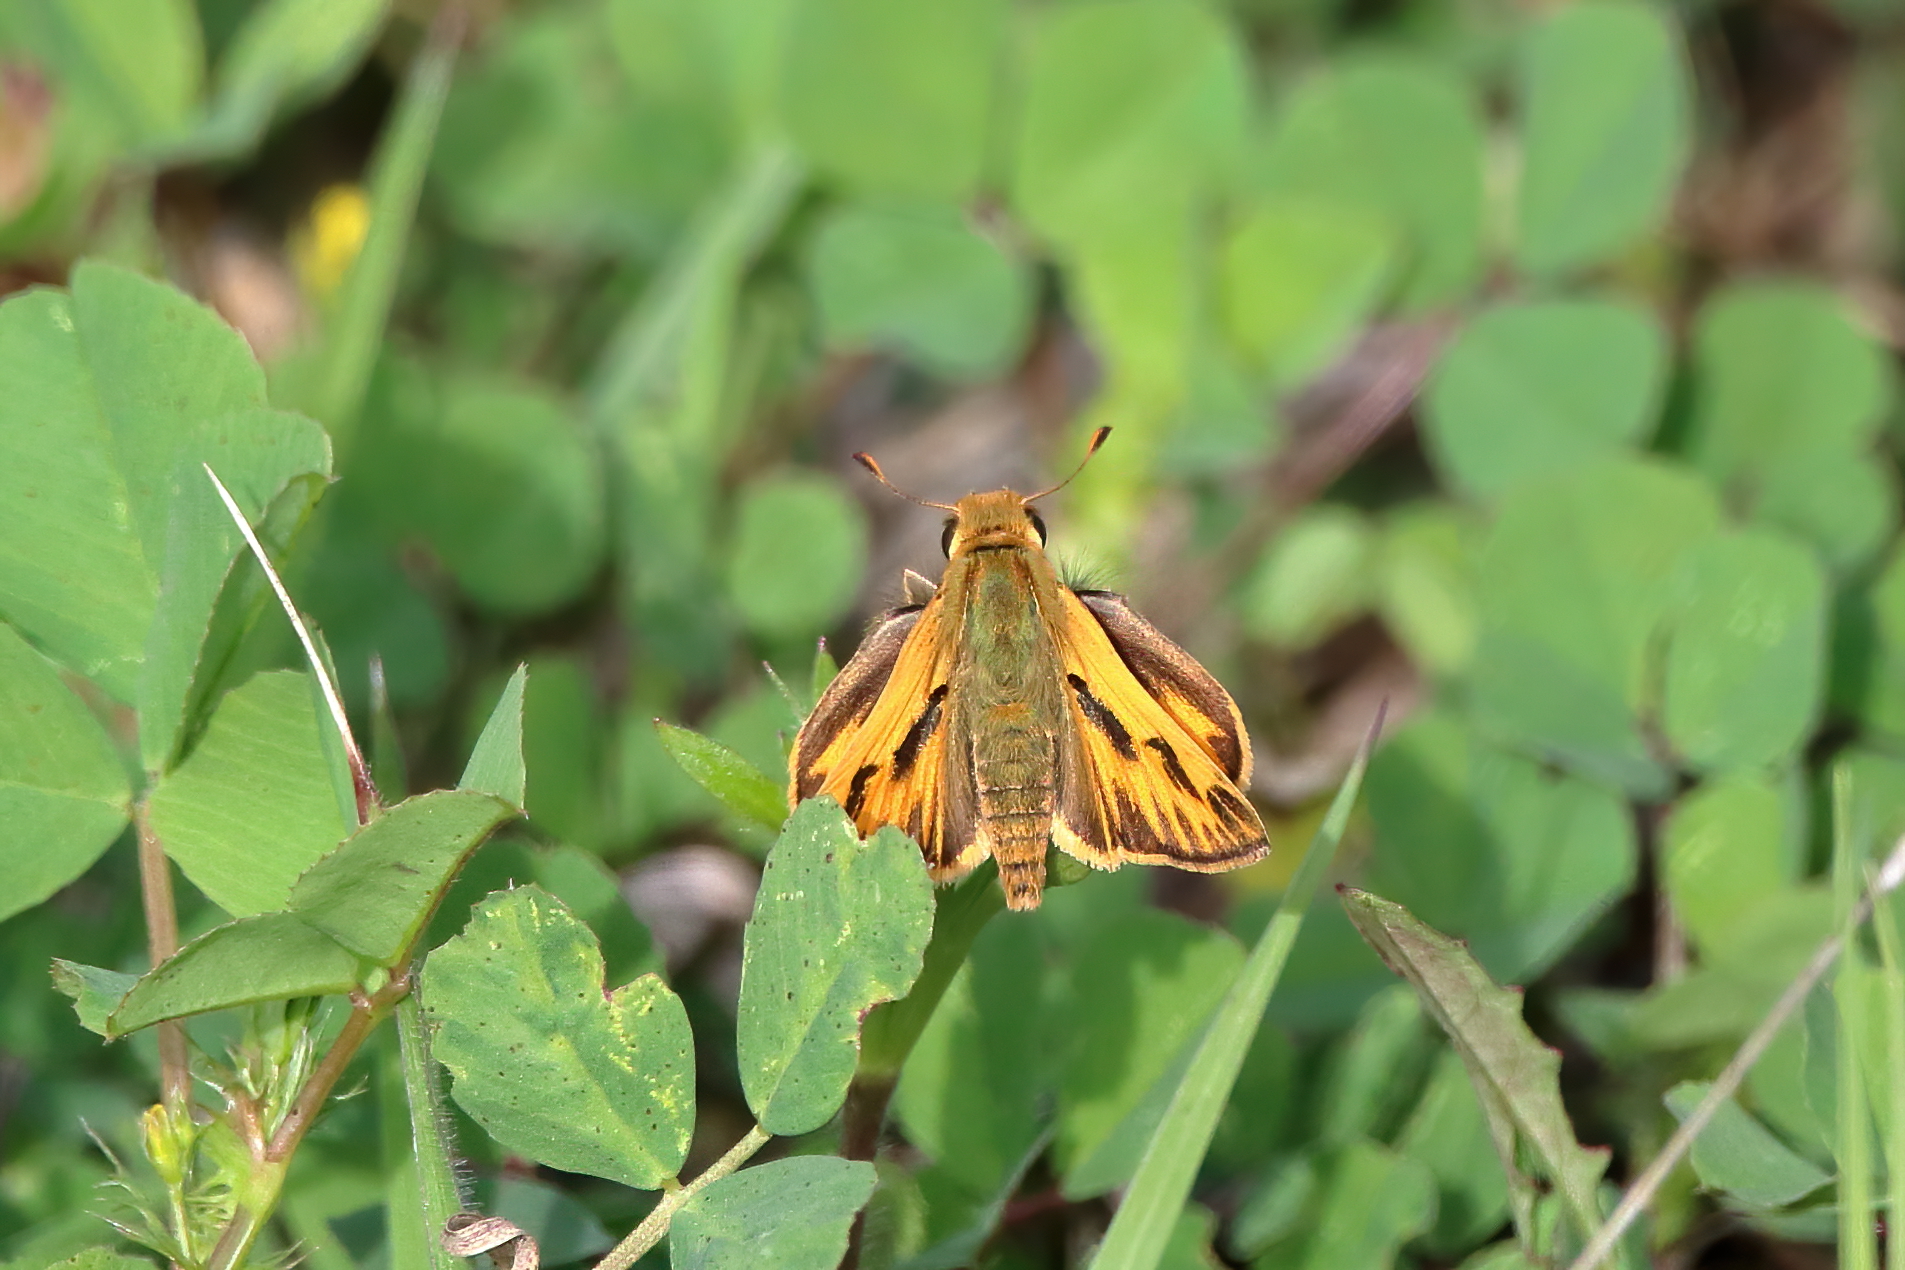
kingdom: Animalia
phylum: Arthropoda
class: Insecta
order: Lepidoptera
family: Hesperiidae
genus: Hylephila
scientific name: Hylephila phyleus
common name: Fiery skipper
